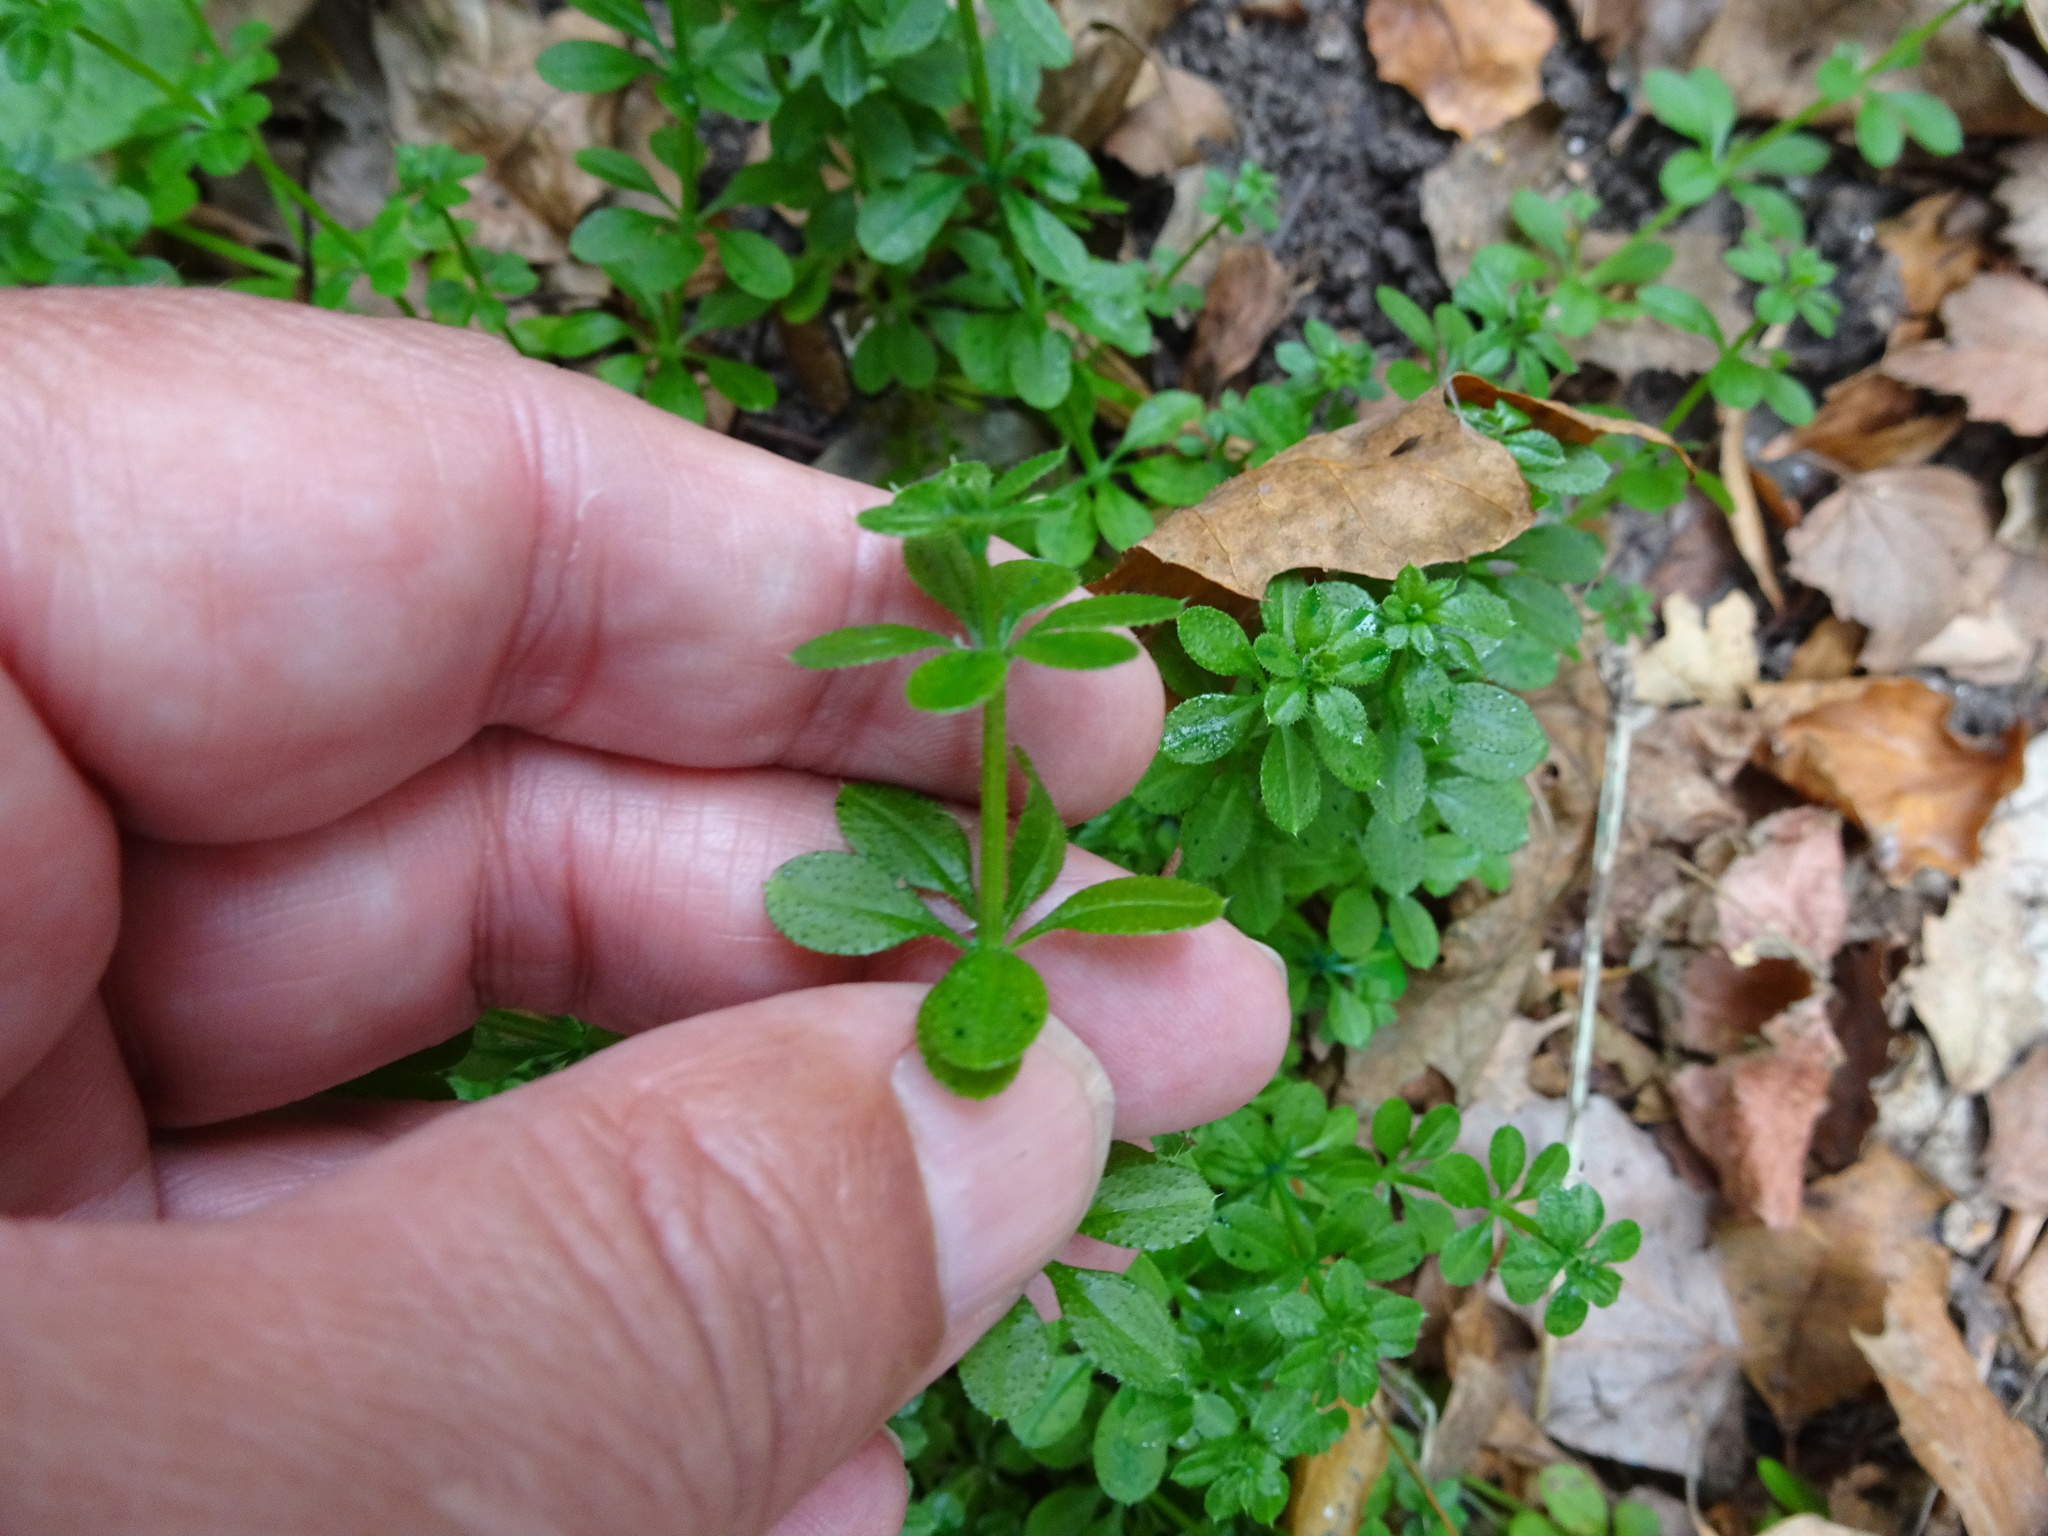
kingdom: Plantae
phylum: Tracheophyta
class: Magnoliopsida
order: Gentianales
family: Rubiaceae
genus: Galium
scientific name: Galium aparine
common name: Cleavers
